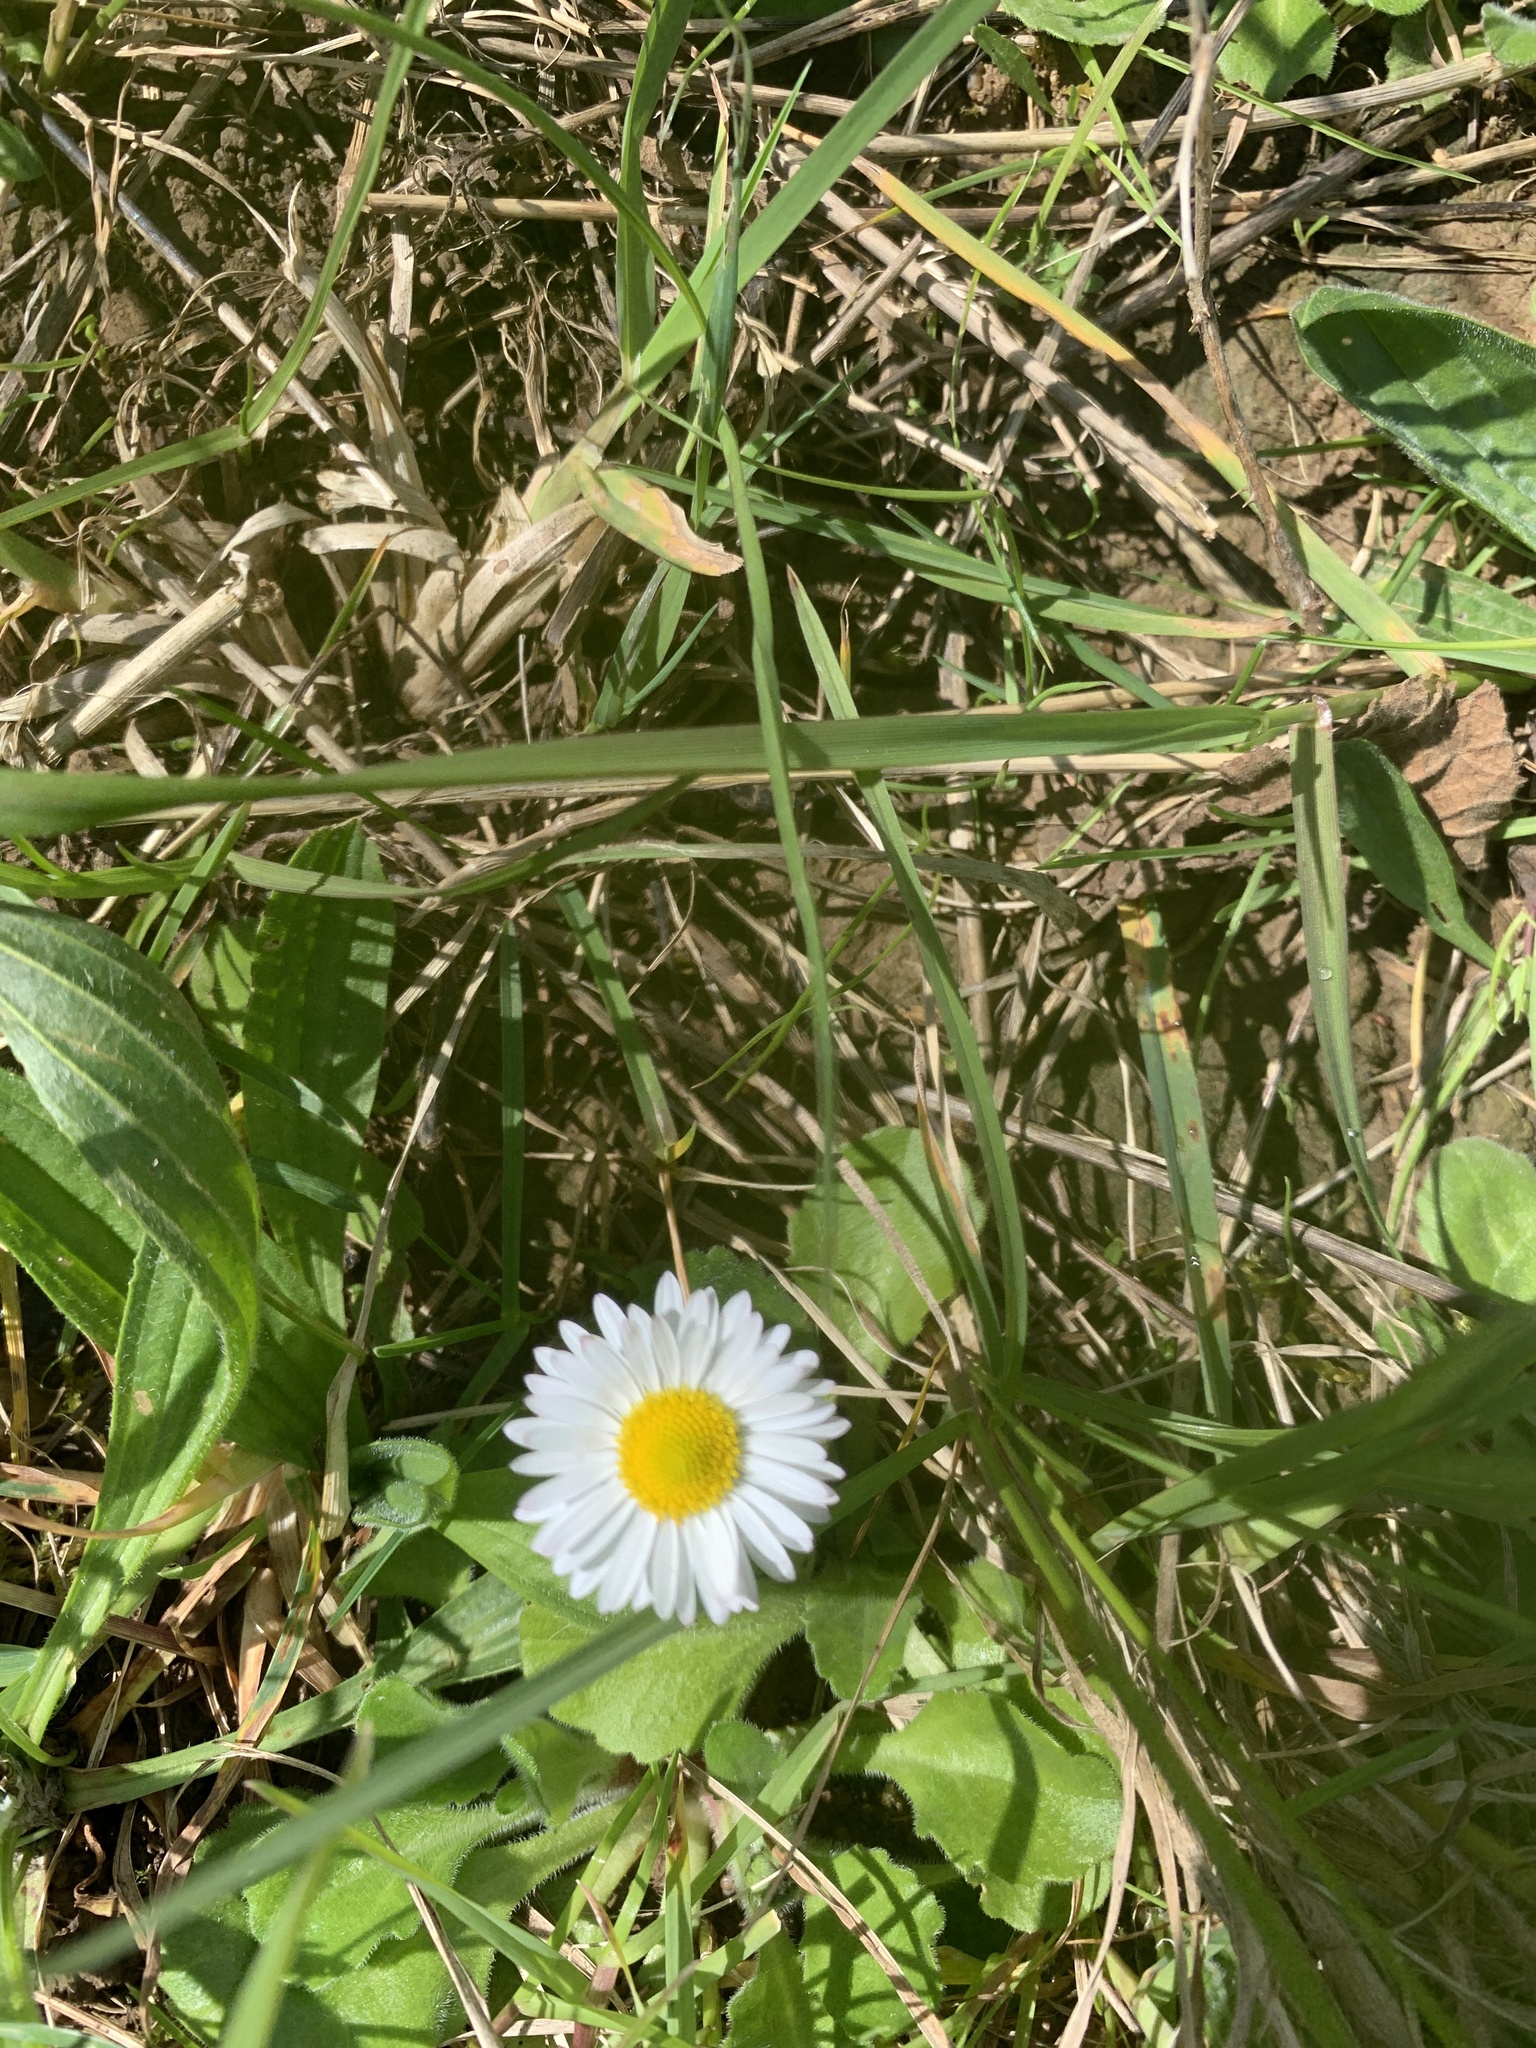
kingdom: Plantae
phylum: Tracheophyta
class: Magnoliopsida
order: Asterales
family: Asteraceae
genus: Bellis
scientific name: Bellis perennis
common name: Lawndaisy
